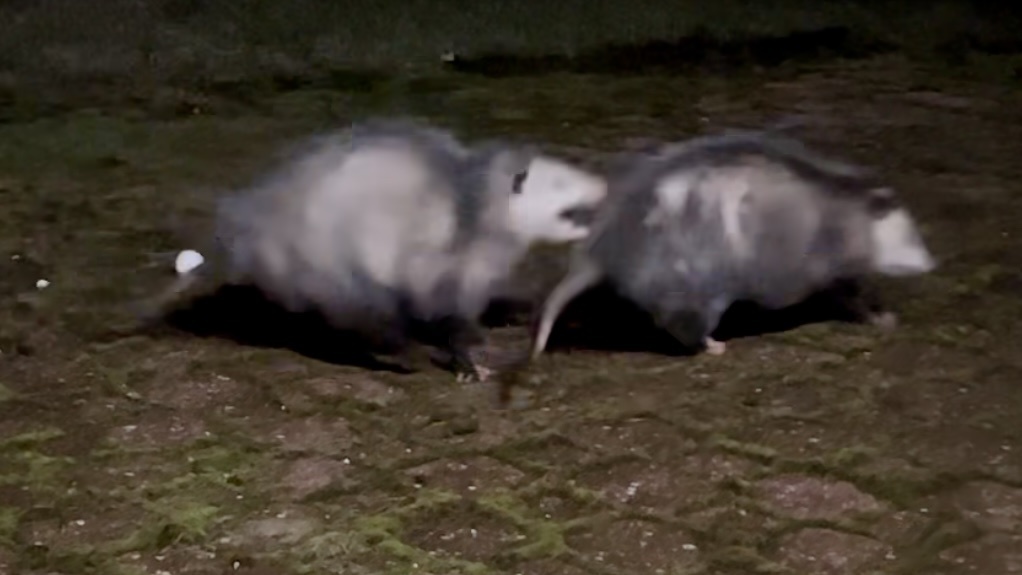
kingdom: Animalia
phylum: Chordata
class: Mammalia
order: Didelphimorphia
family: Didelphidae
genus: Didelphis
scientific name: Didelphis virginiana
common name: Virginia opossum
